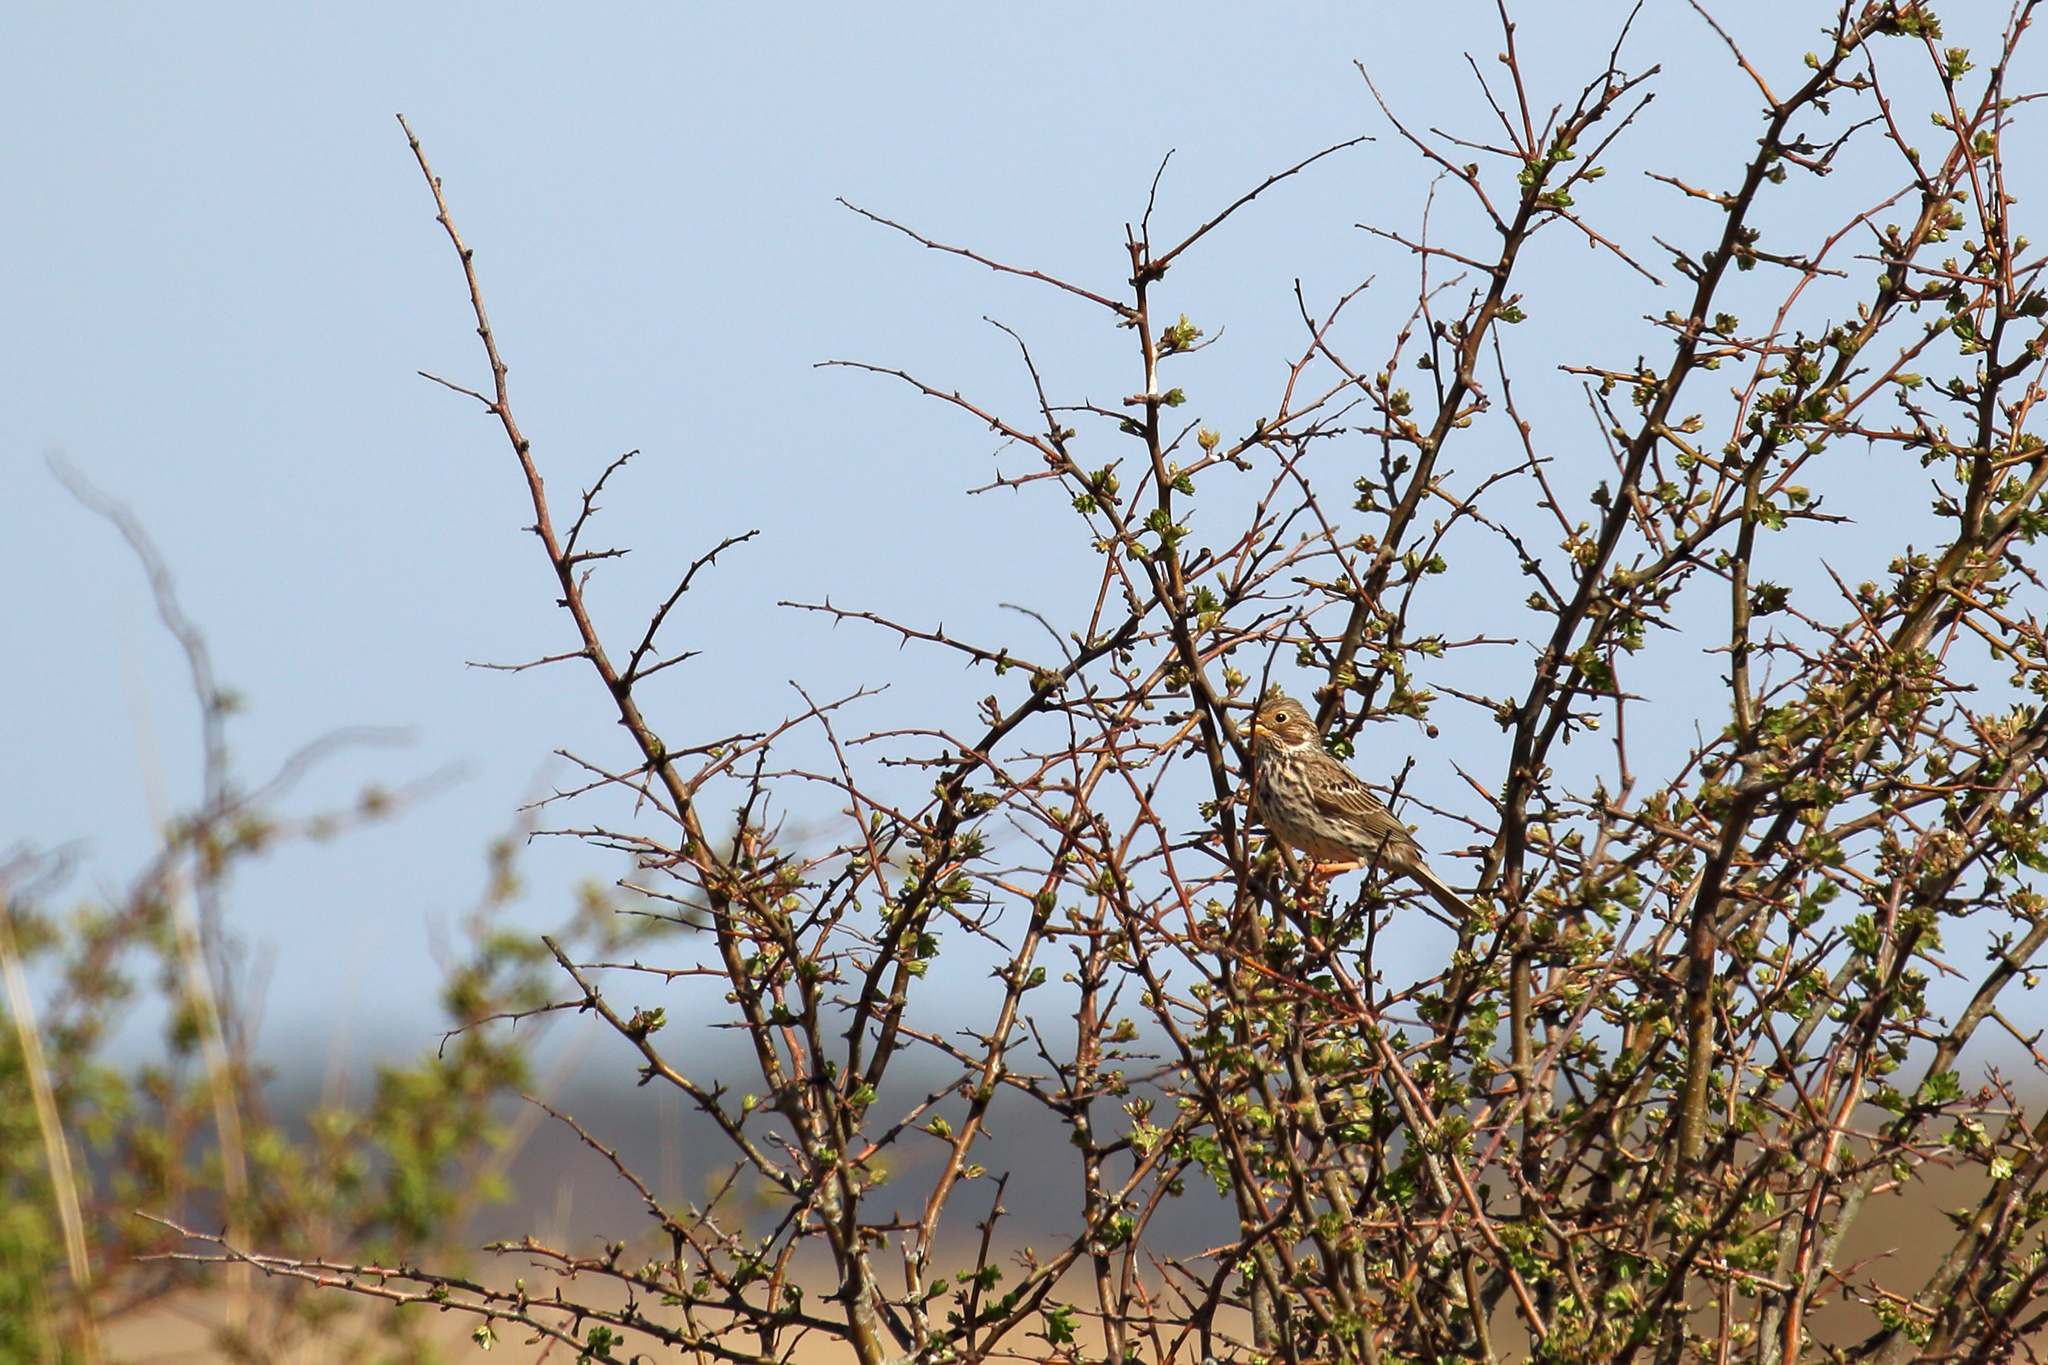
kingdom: Animalia
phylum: Chordata
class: Aves
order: Passeriformes
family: Emberizidae
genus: Emberiza
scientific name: Emberiza calandra
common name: Corn bunting
